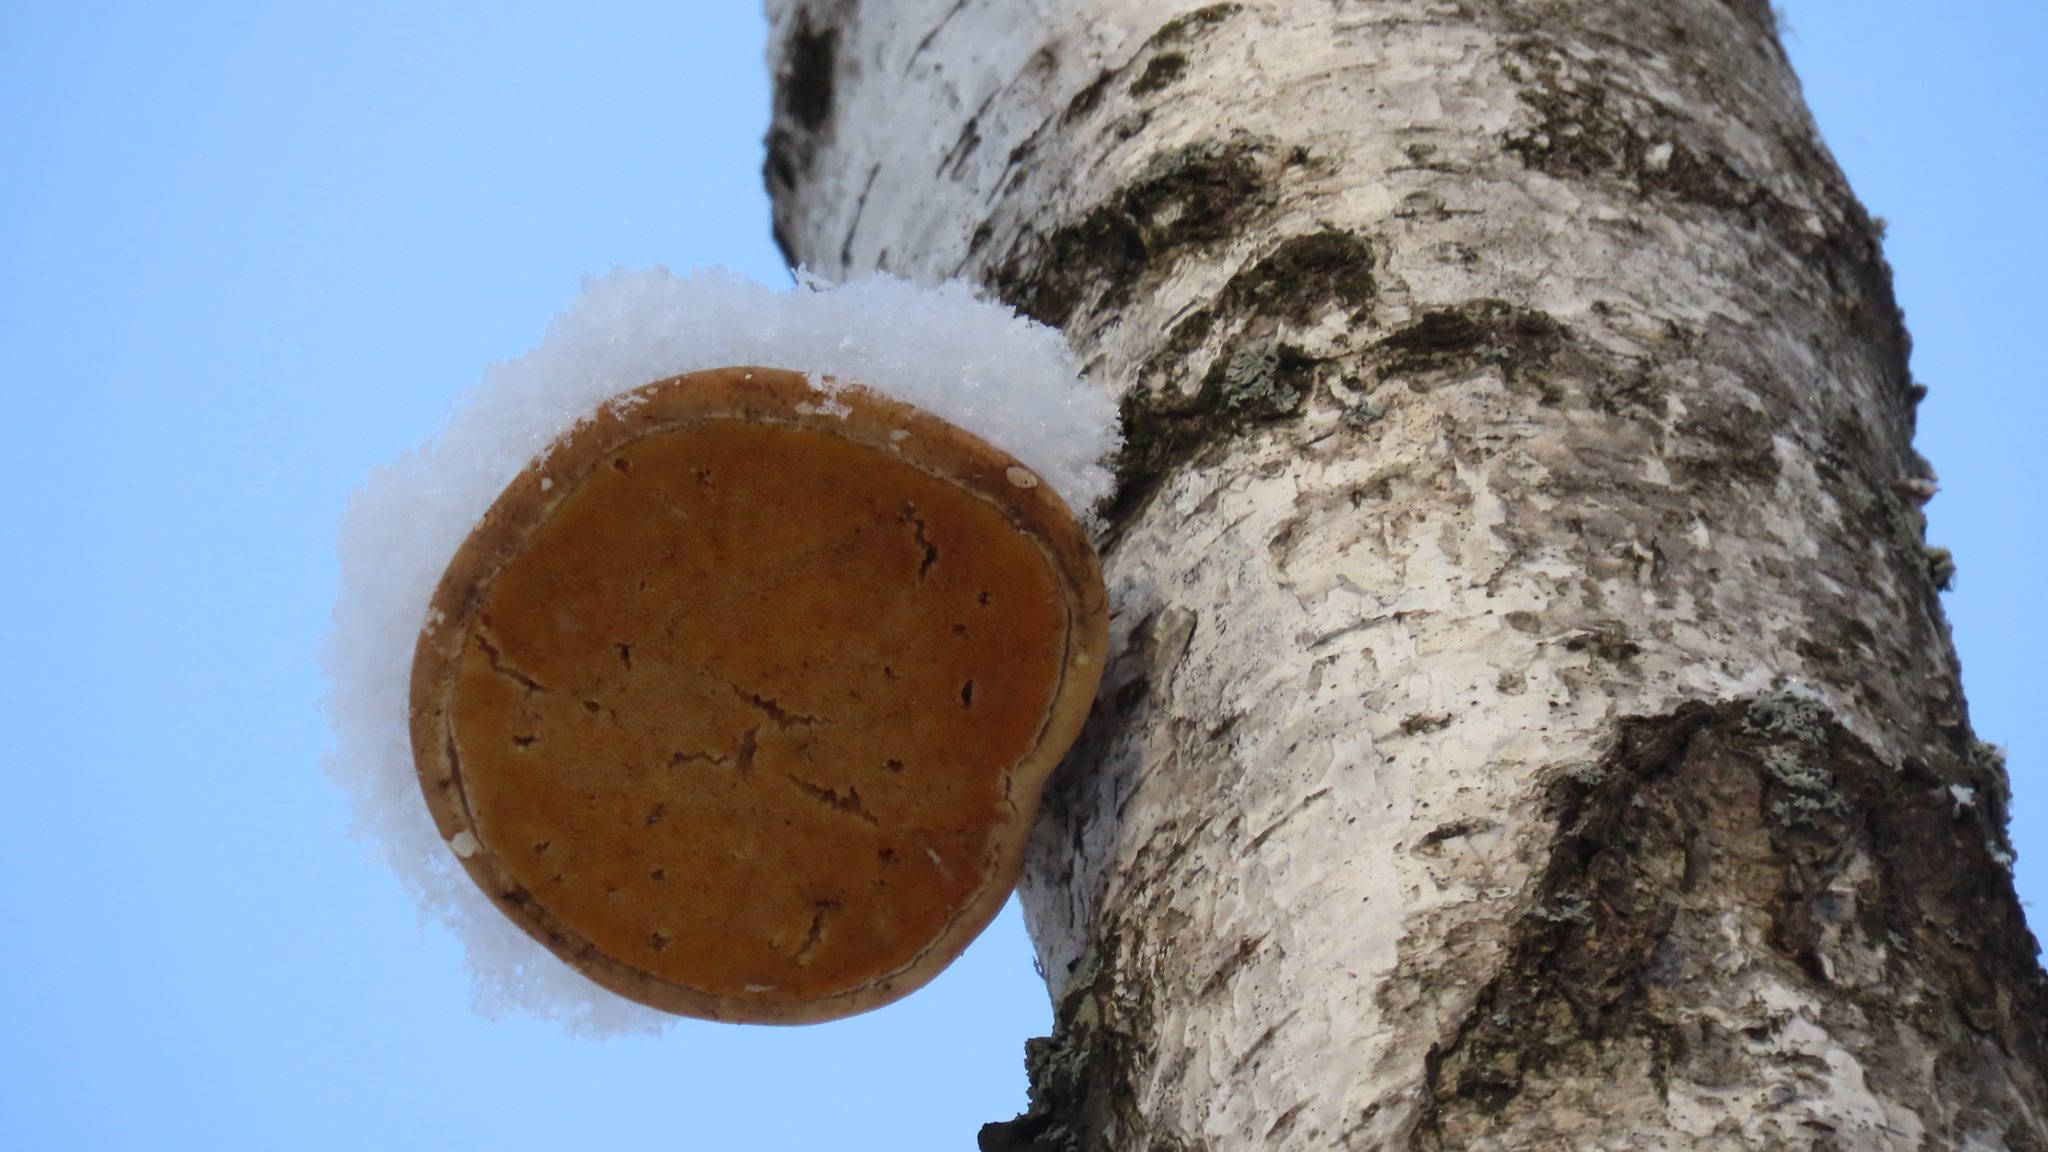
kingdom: Fungi
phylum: Basidiomycota
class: Agaricomycetes
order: Polyporales
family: Fomitopsidaceae
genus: Fomitopsis
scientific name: Fomitopsis betulina
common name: Birch polypore
